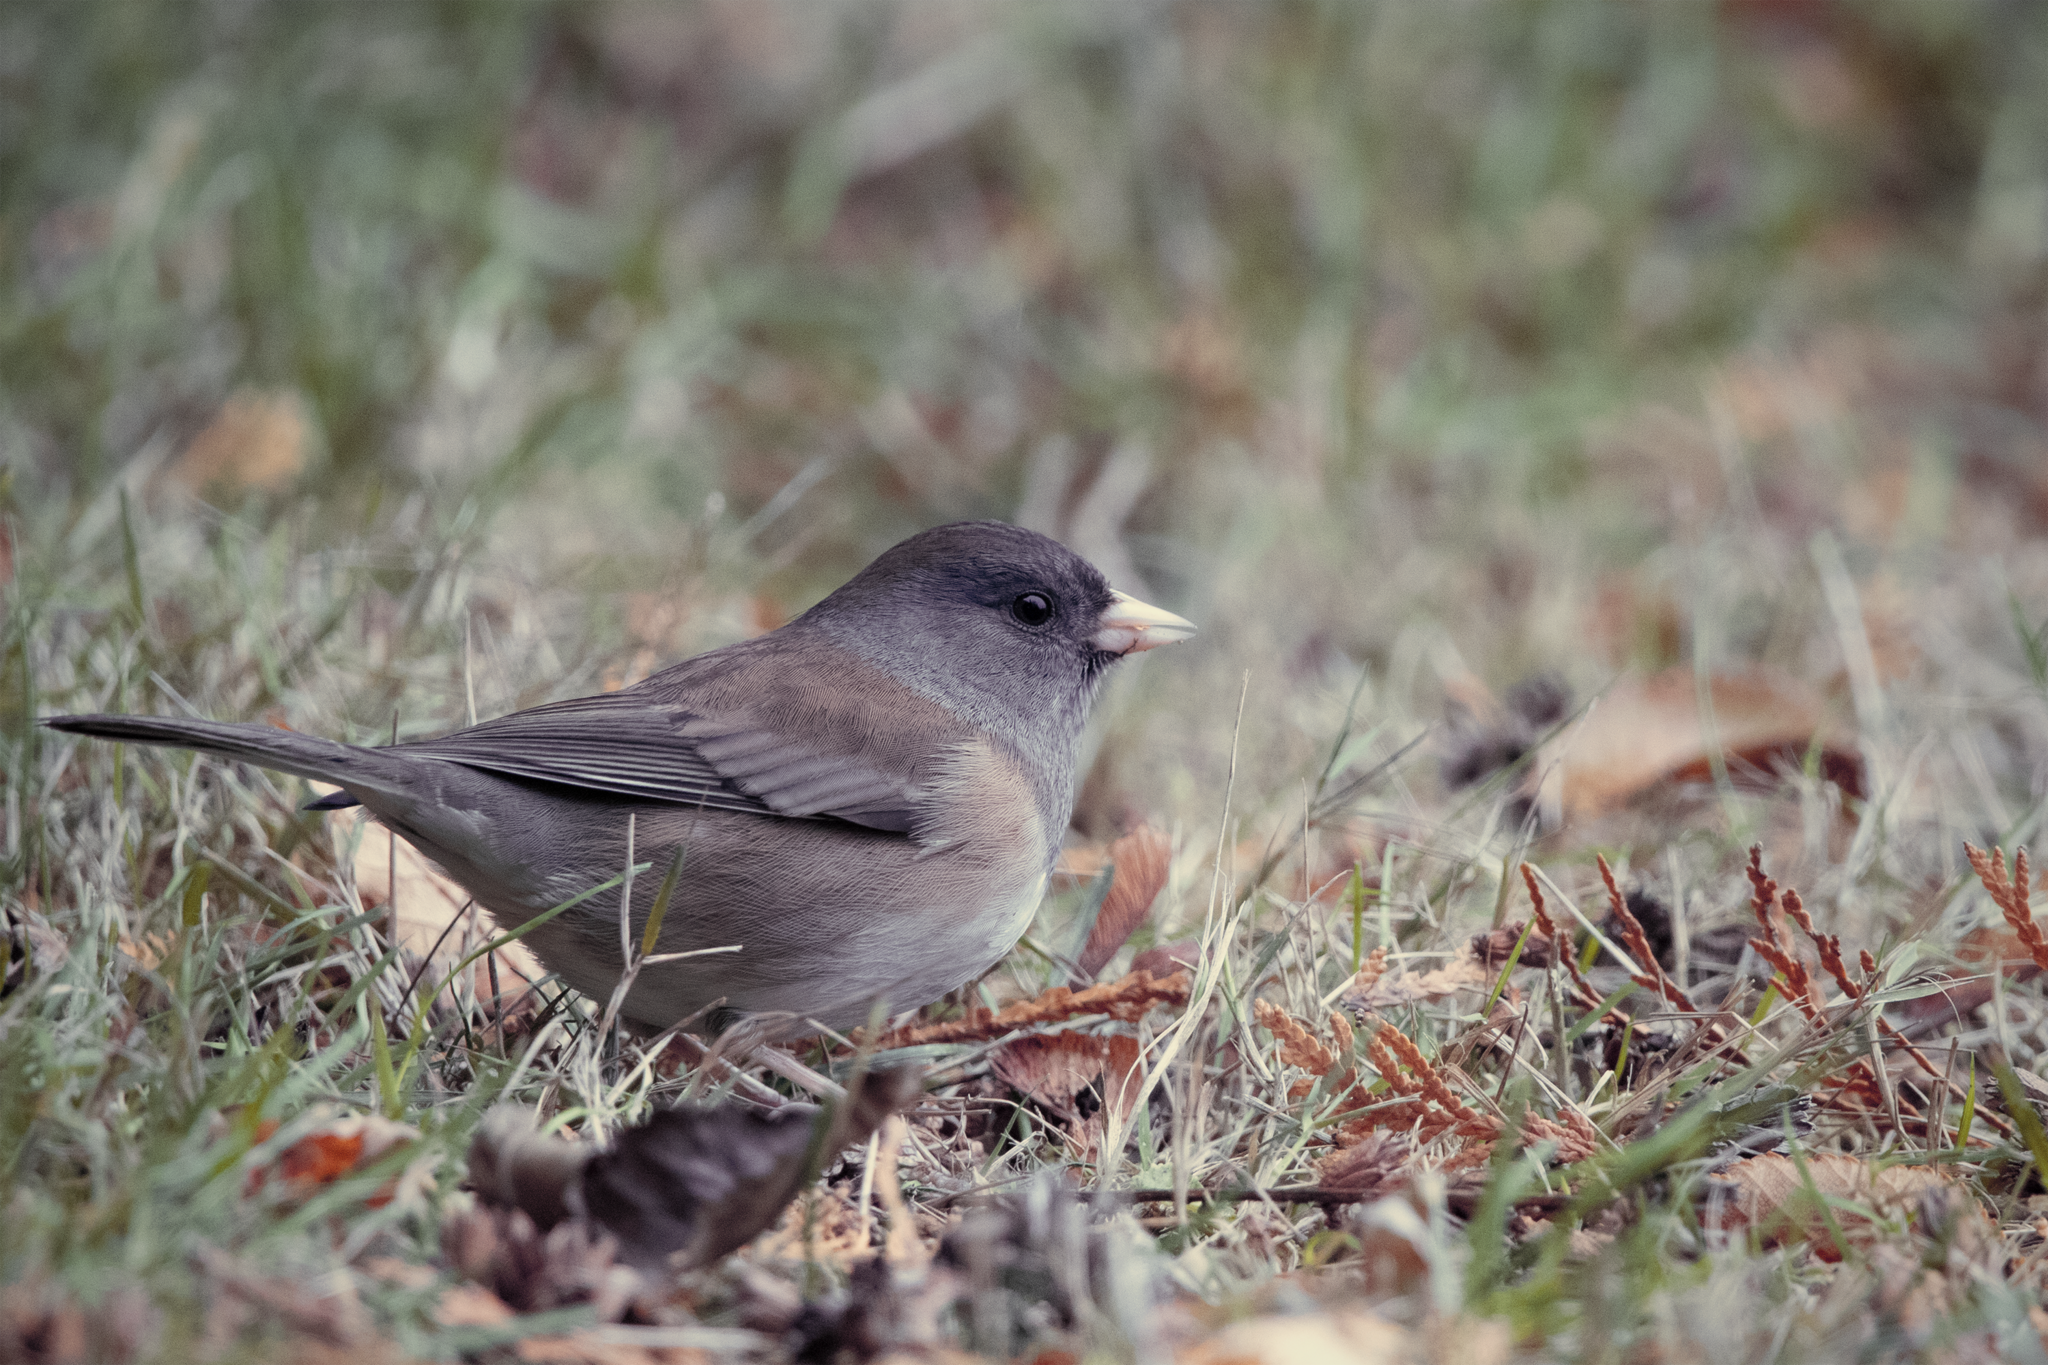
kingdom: Animalia
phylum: Chordata
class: Aves
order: Passeriformes
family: Passerellidae
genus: Junco
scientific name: Junco hyemalis
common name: Dark-eyed junco
